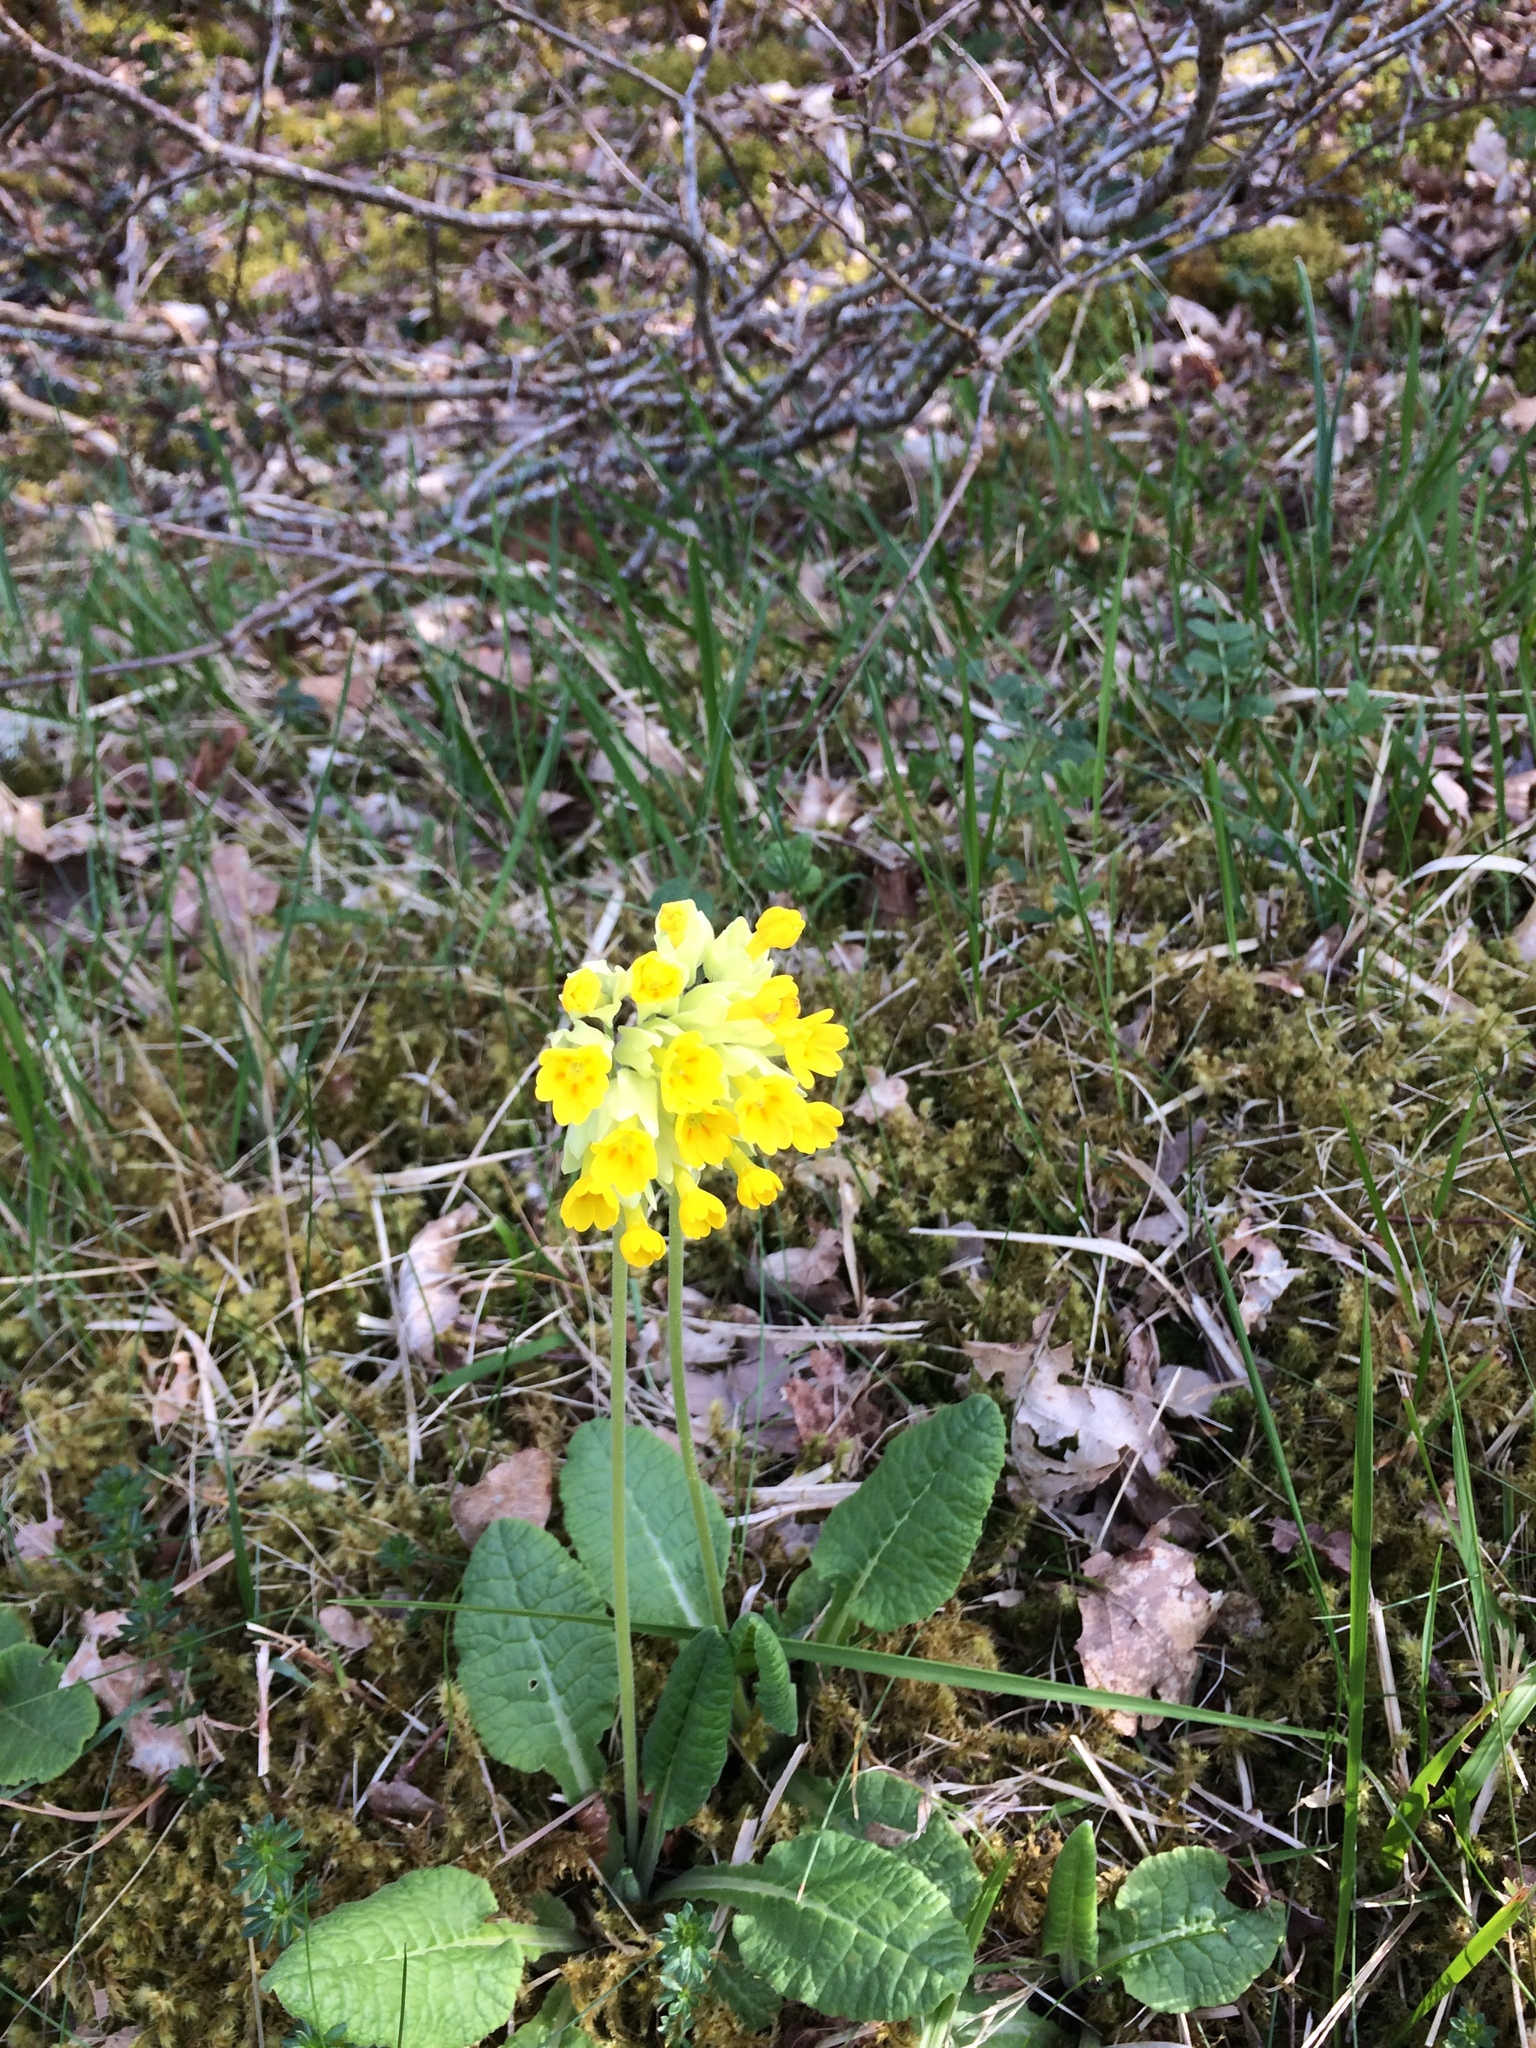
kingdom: Plantae
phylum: Tracheophyta
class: Magnoliopsida
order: Ericales
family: Primulaceae
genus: Primula
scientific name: Primula veris
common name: Cowslip
